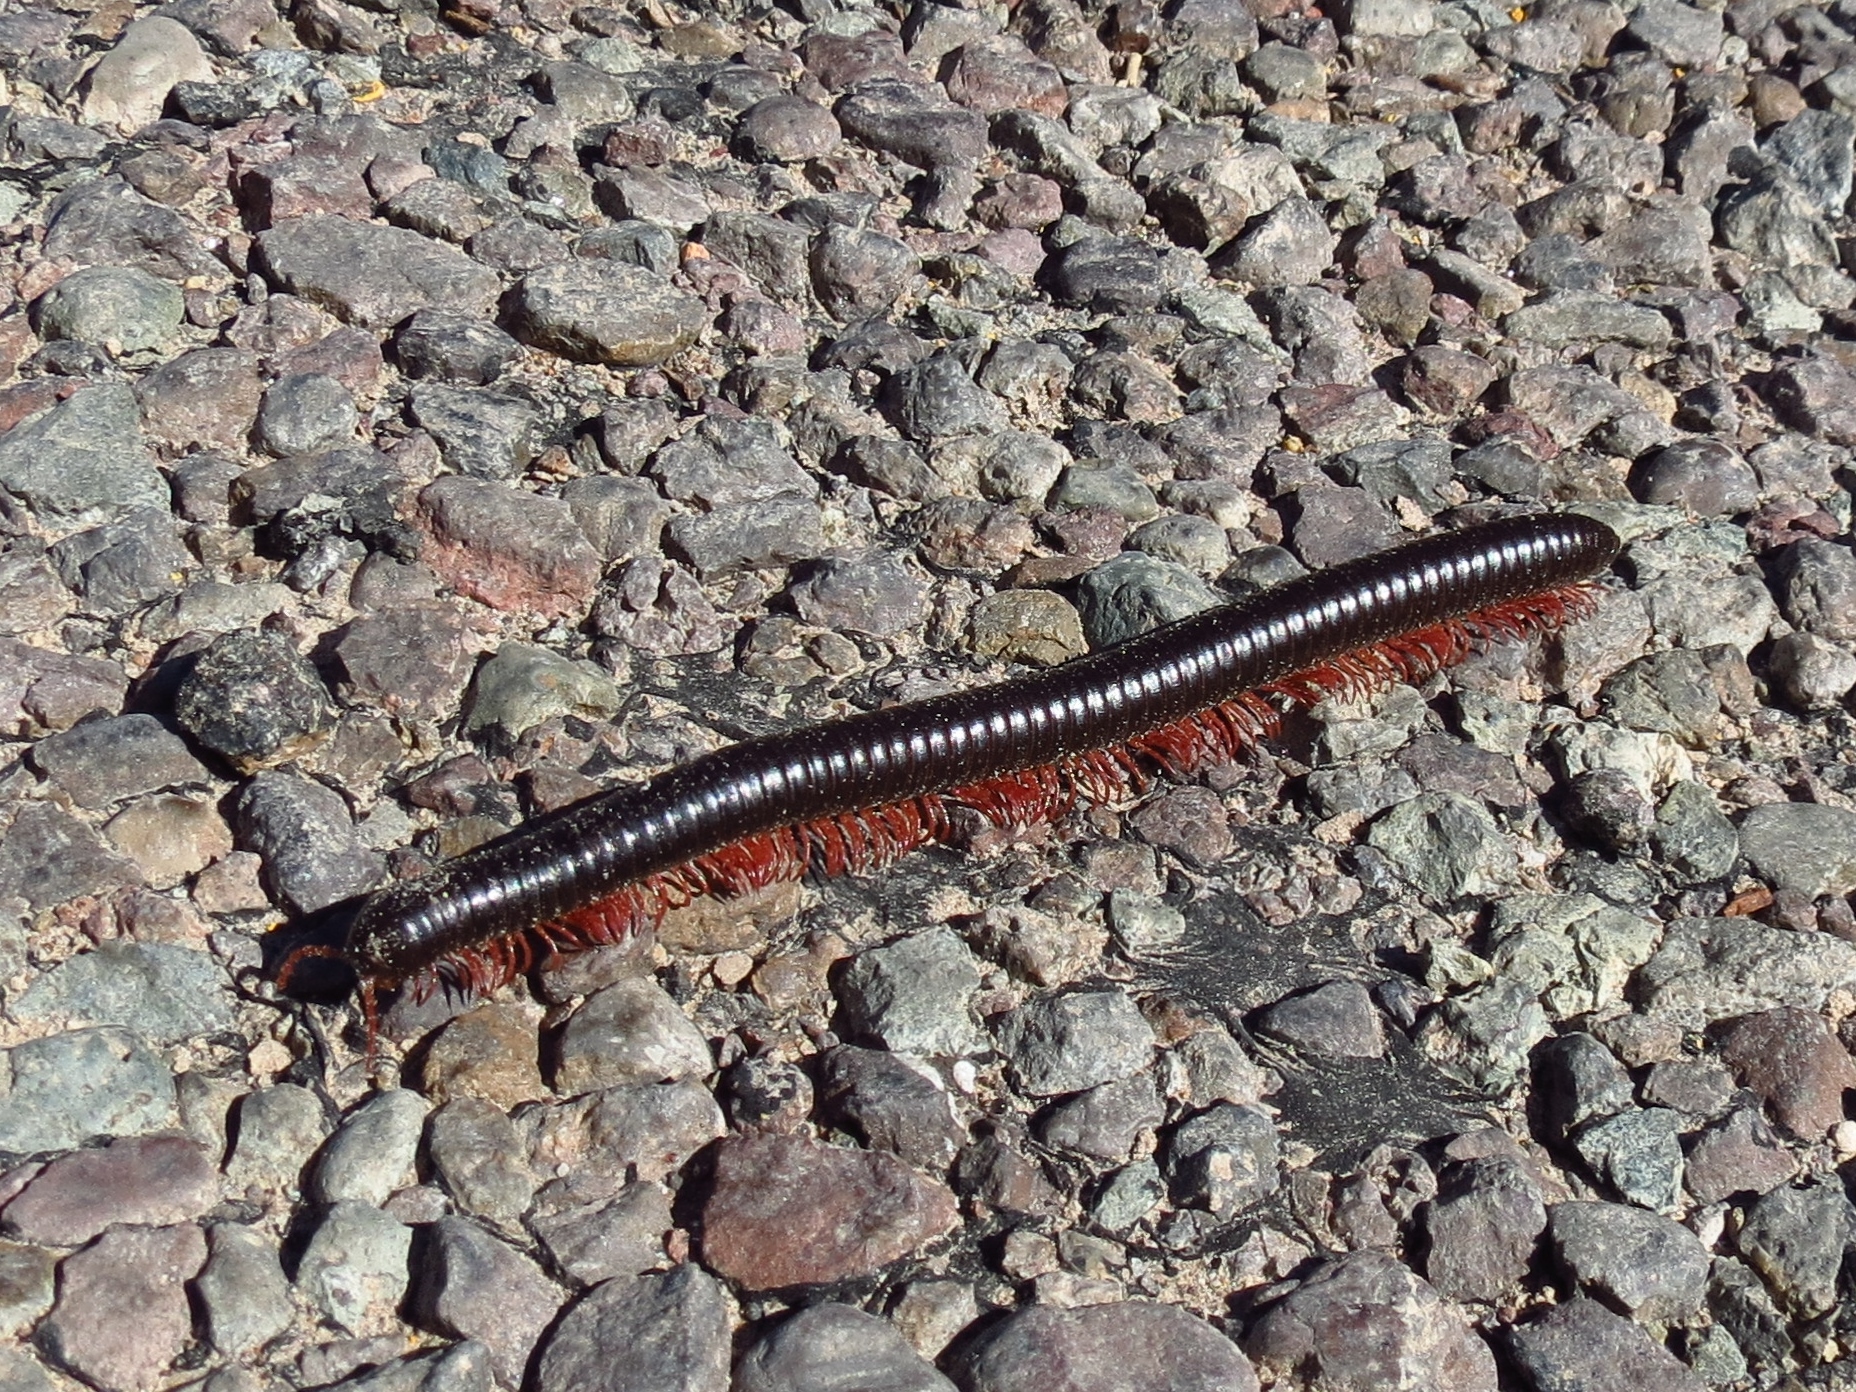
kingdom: Animalia
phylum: Arthropoda
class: Diplopoda
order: Spirostreptida
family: Spirostreptidae
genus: Orthoporus
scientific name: Orthoporus ornatus
